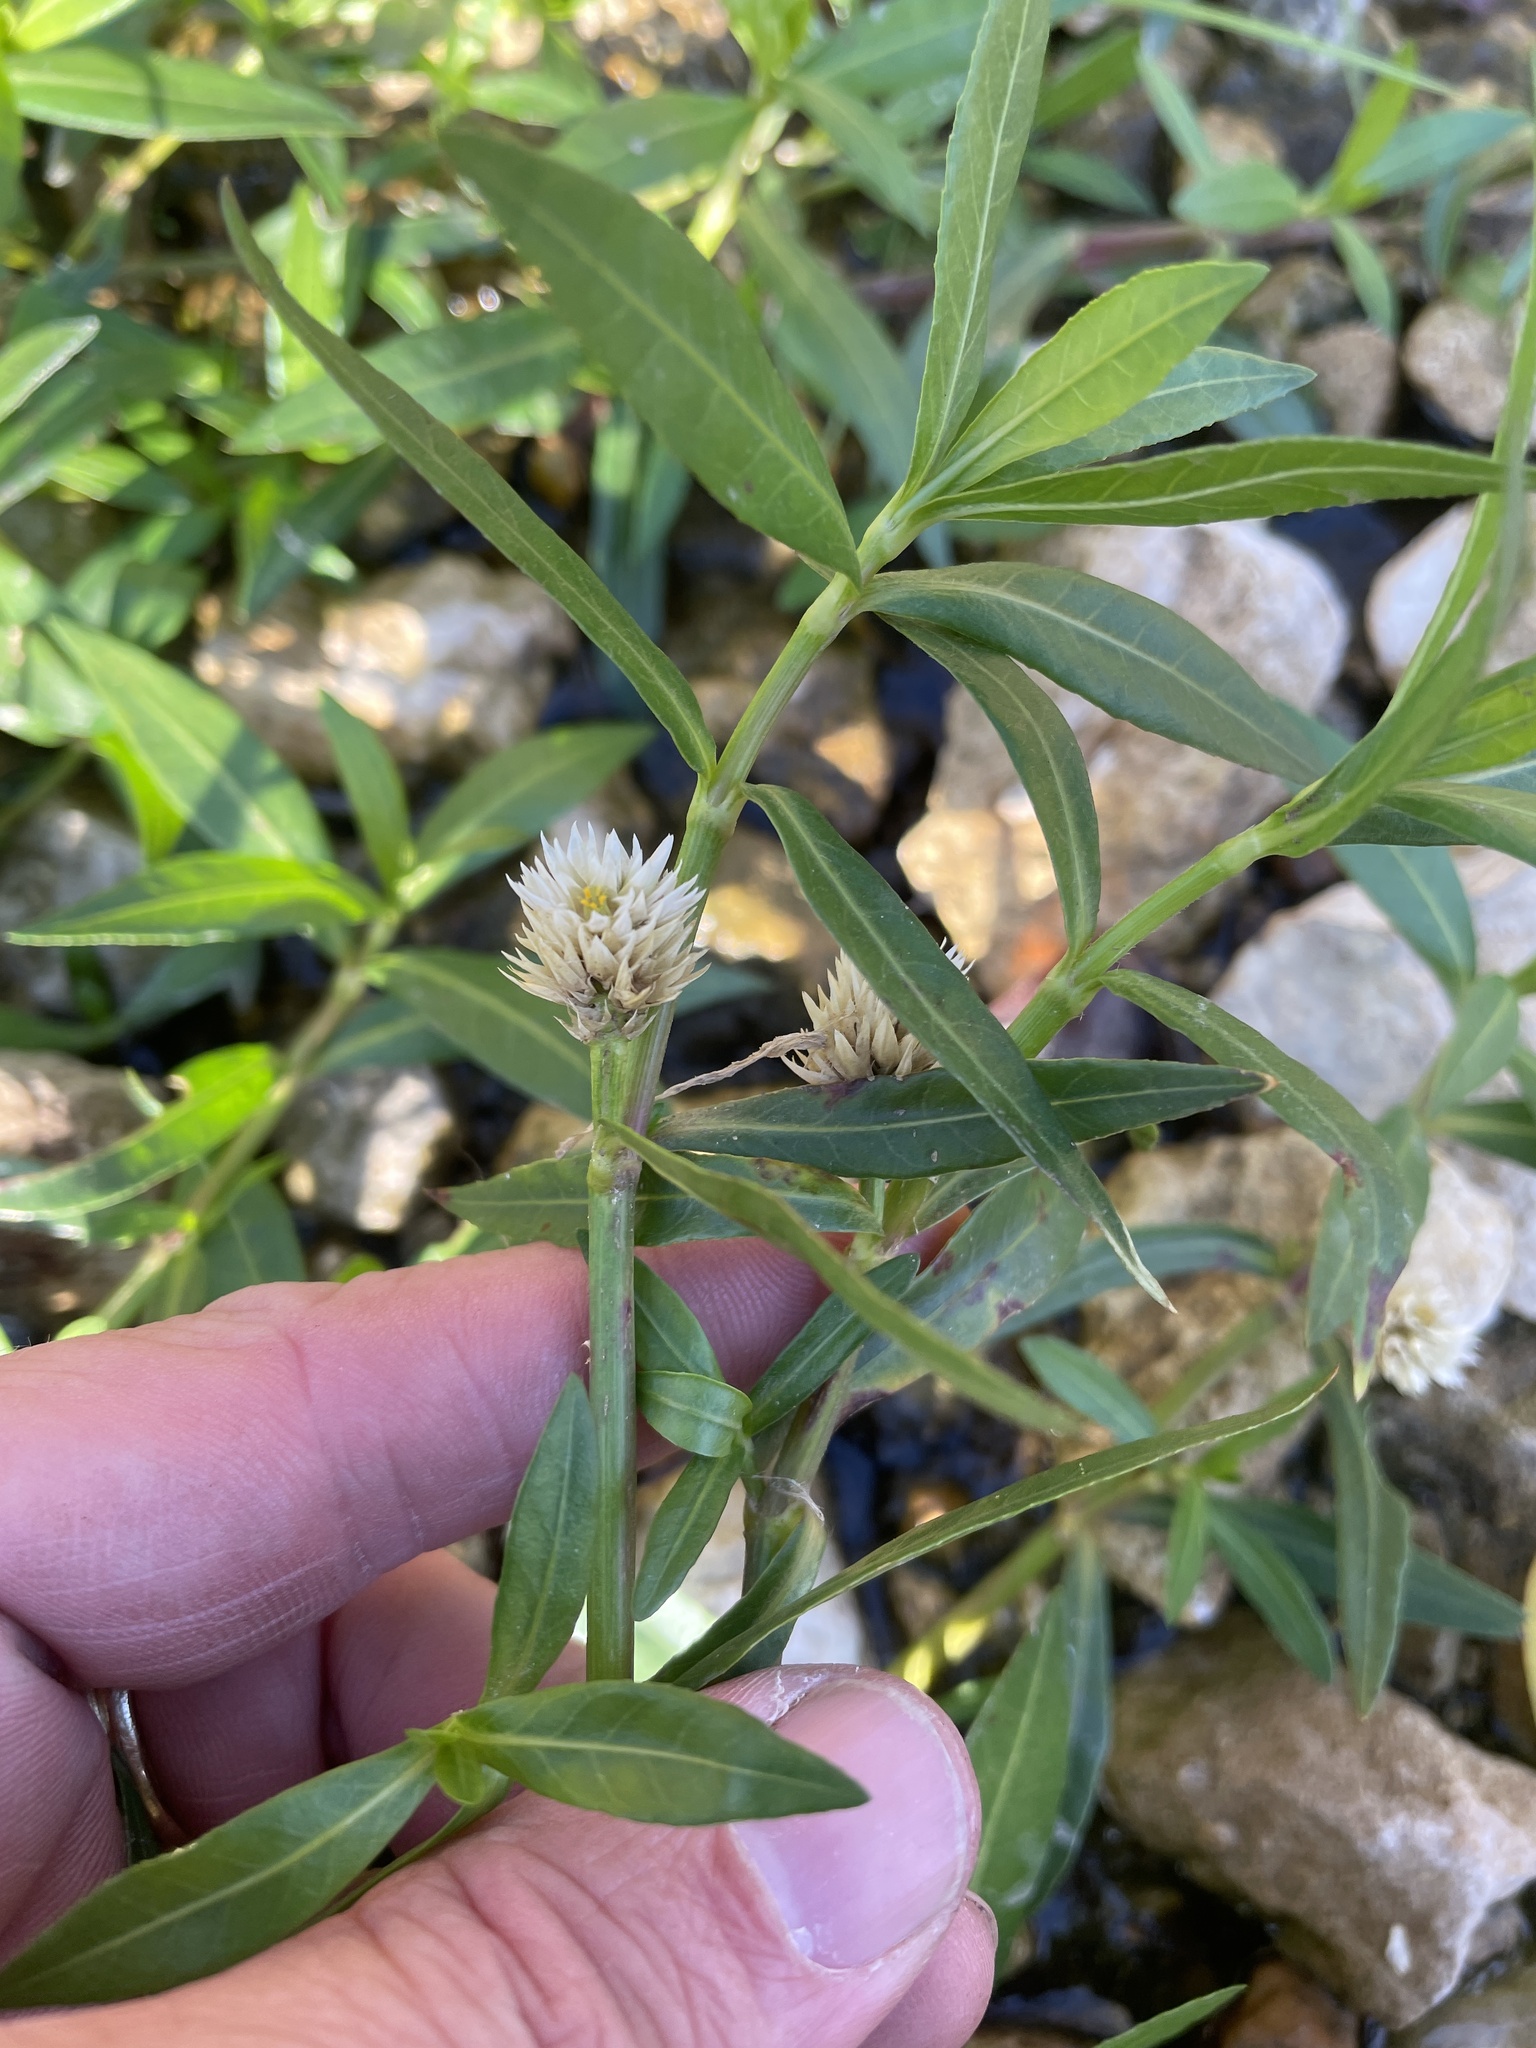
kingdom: Plantae
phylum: Tracheophyta
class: Magnoliopsida
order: Caryophyllales
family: Amaranthaceae
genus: Alternanthera
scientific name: Alternanthera philoxeroides
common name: Alligatorweed
